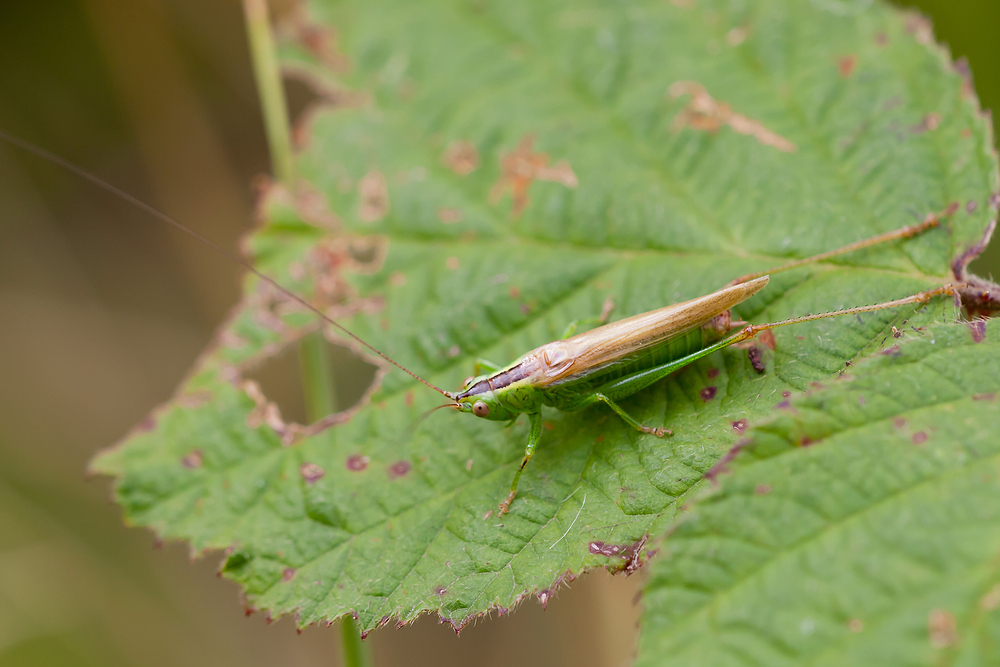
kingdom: Animalia
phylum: Arthropoda
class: Insecta
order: Orthoptera
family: Tettigoniidae
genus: Conocephalus
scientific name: Conocephalus fuscus
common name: Long-winged conehead
